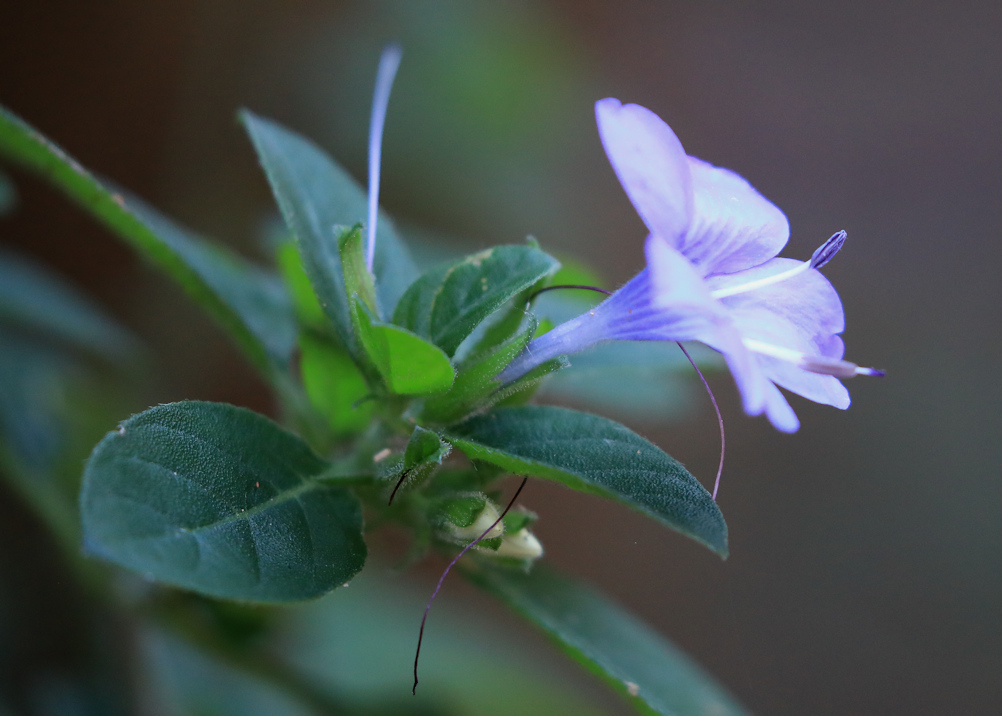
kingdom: Plantae
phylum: Tracheophyta
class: Magnoliopsida
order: Lamiales
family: Acanthaceae
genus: Barleria
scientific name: Barleria obtusa
